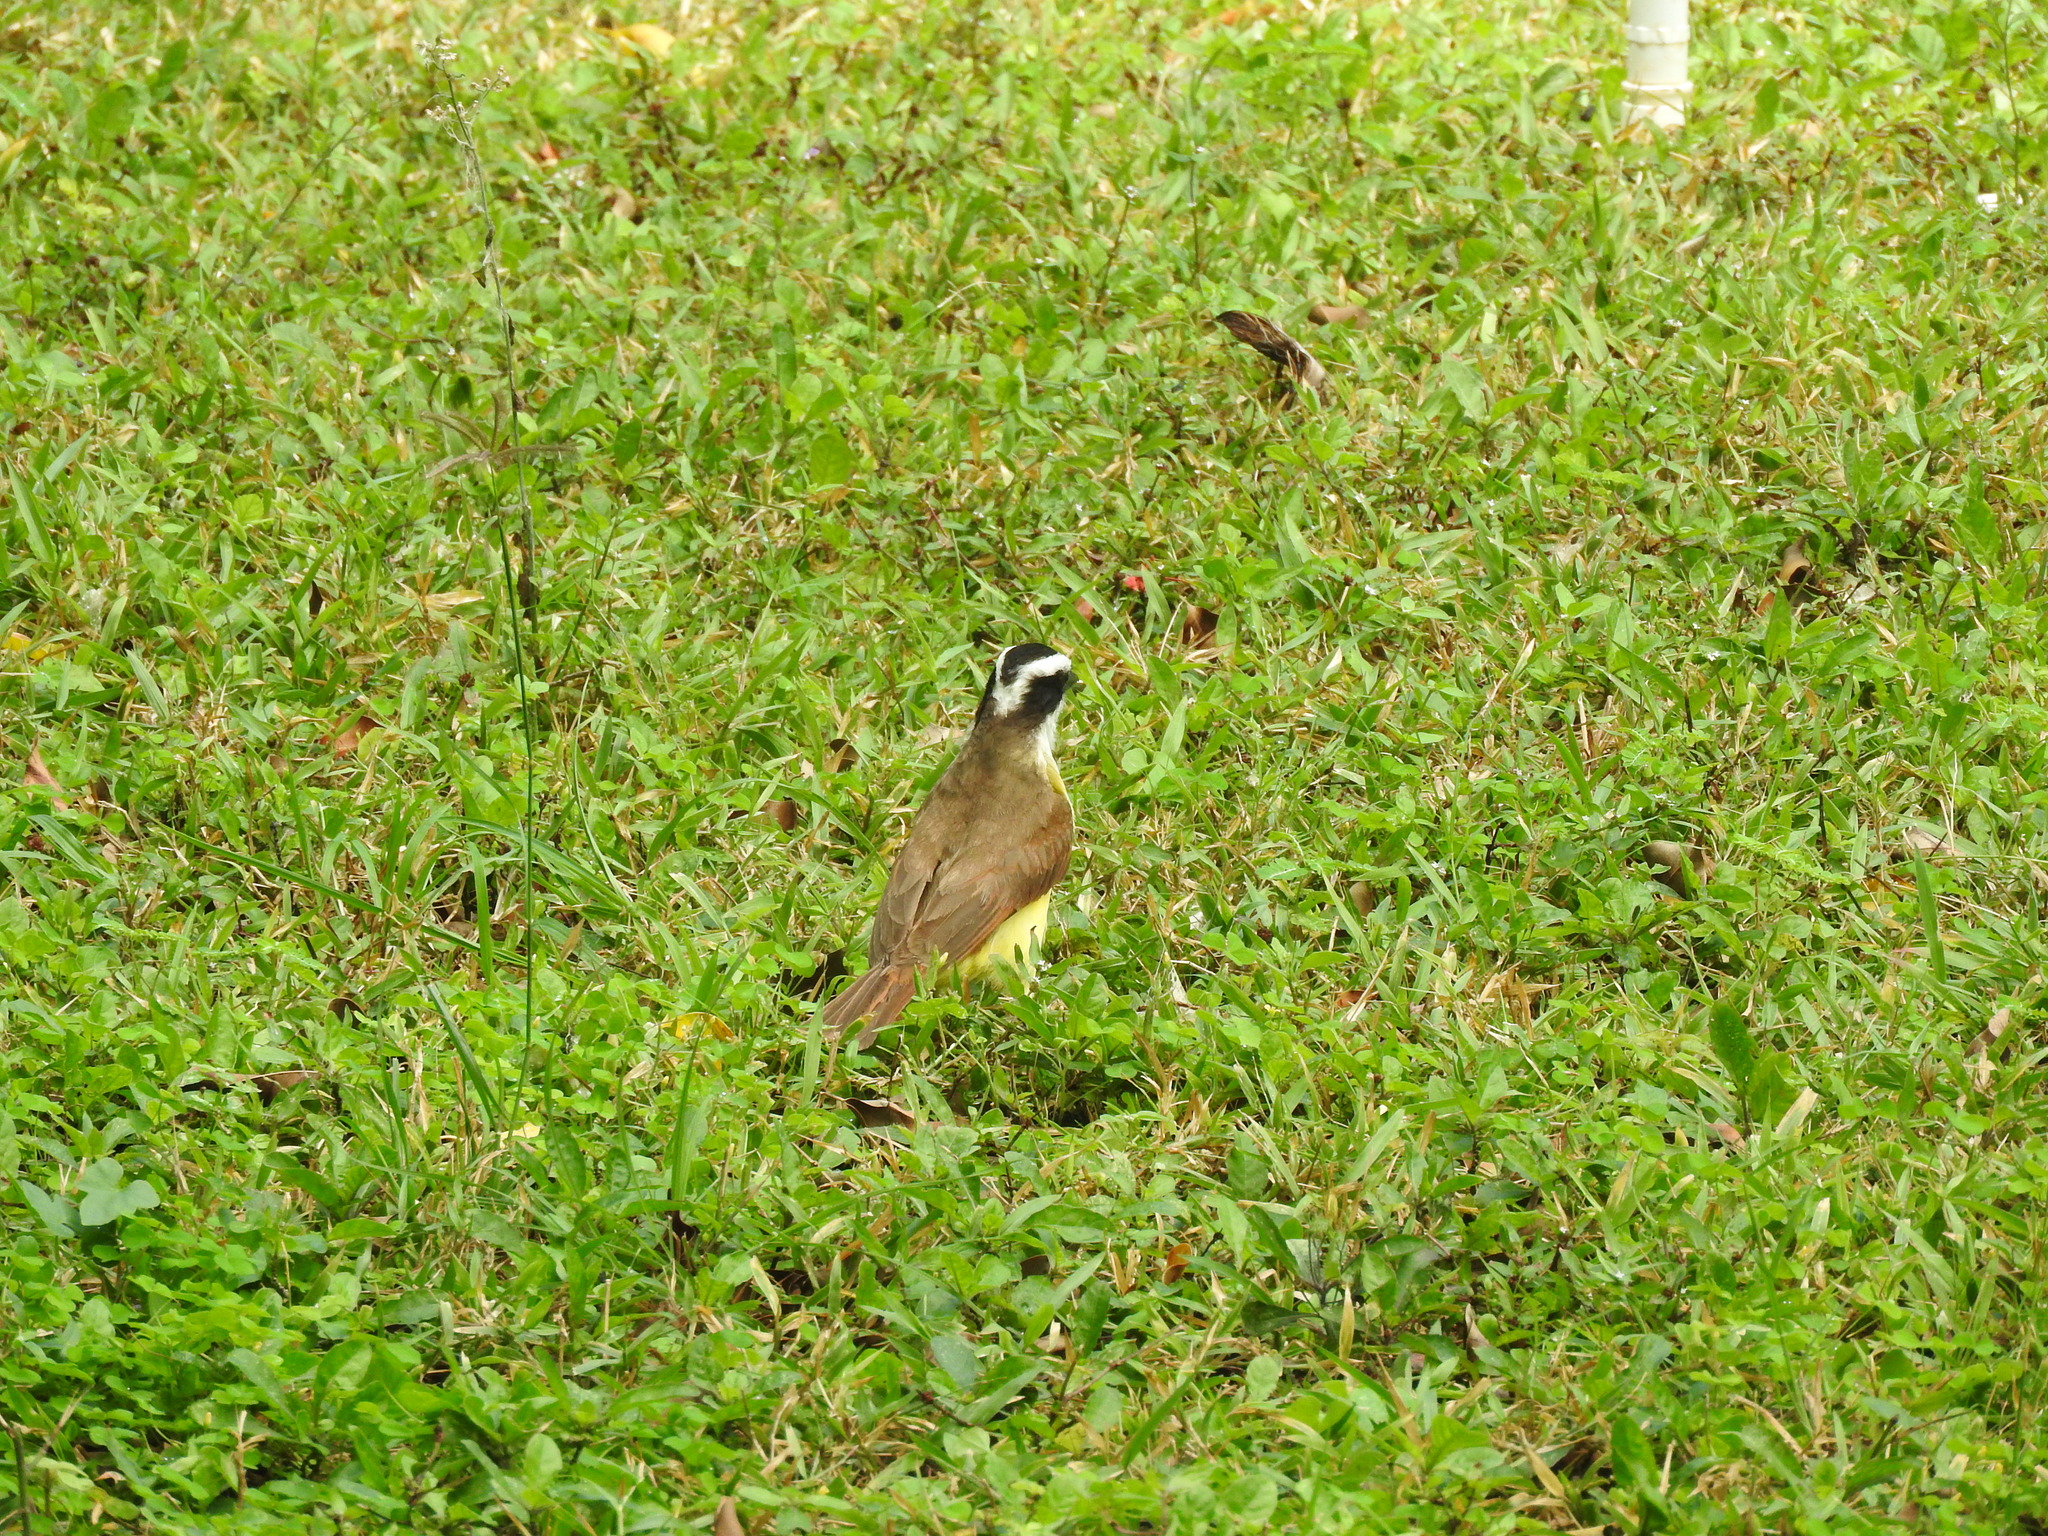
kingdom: Animalia
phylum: Chordata
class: Aves
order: Passeriformes
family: Tyrannidae
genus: Pitangus
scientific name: Pitangus sulphuratus
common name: Great kiskadee
